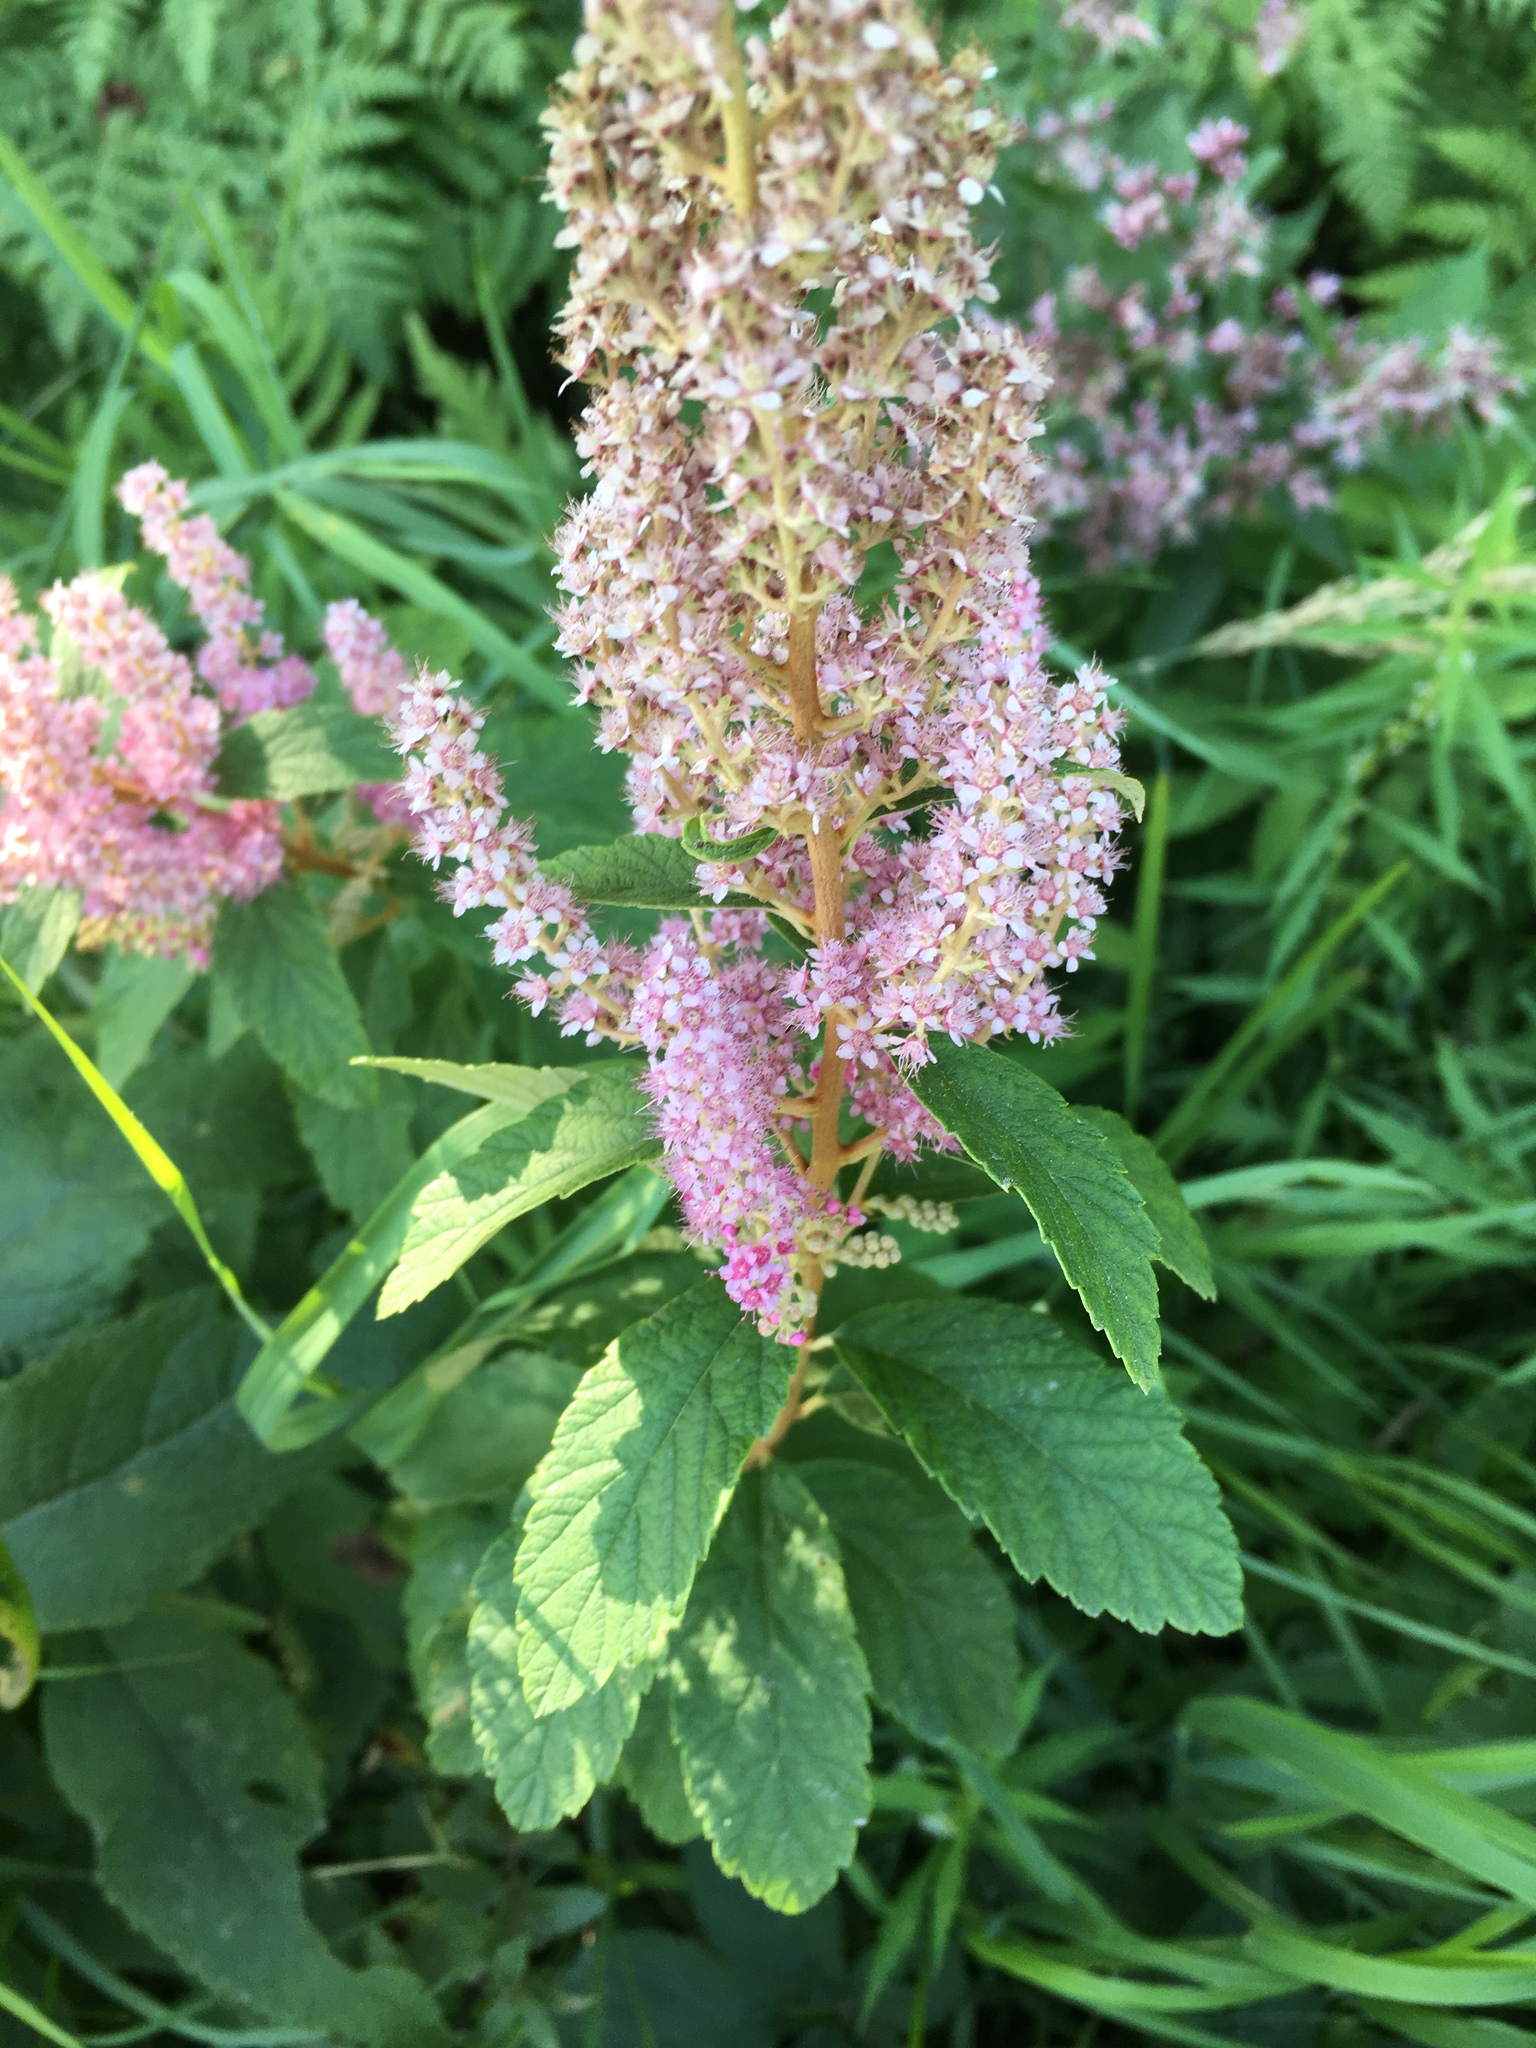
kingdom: Plantae
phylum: Tracheophyta
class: Magnoliopsida
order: Rosales
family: Rosaceae
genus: Spiraea
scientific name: Spiraea tomentosa
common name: Hardhack
